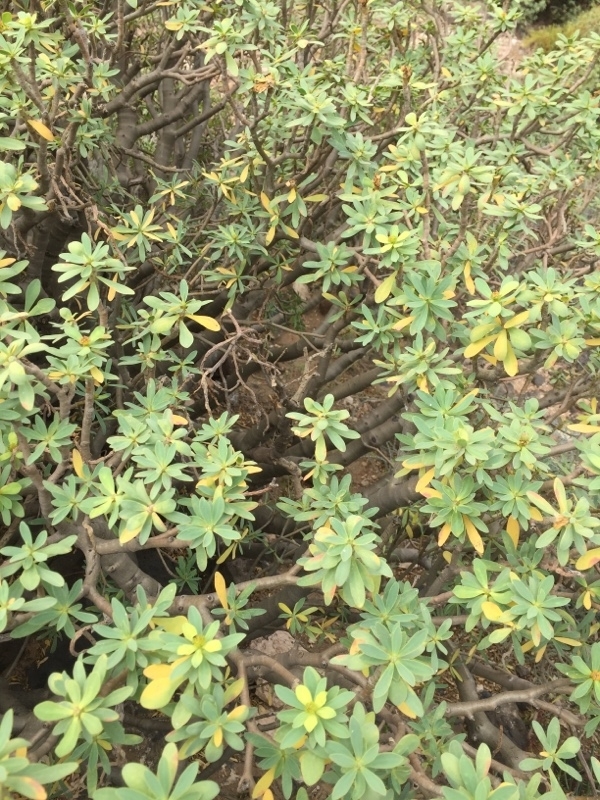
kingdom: Plantae
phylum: Tracheophyta
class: Magnoliopsida
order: Malpighiales
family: Euphorbiaceae
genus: Euphorbia
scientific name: Euphorbia balsamifera
